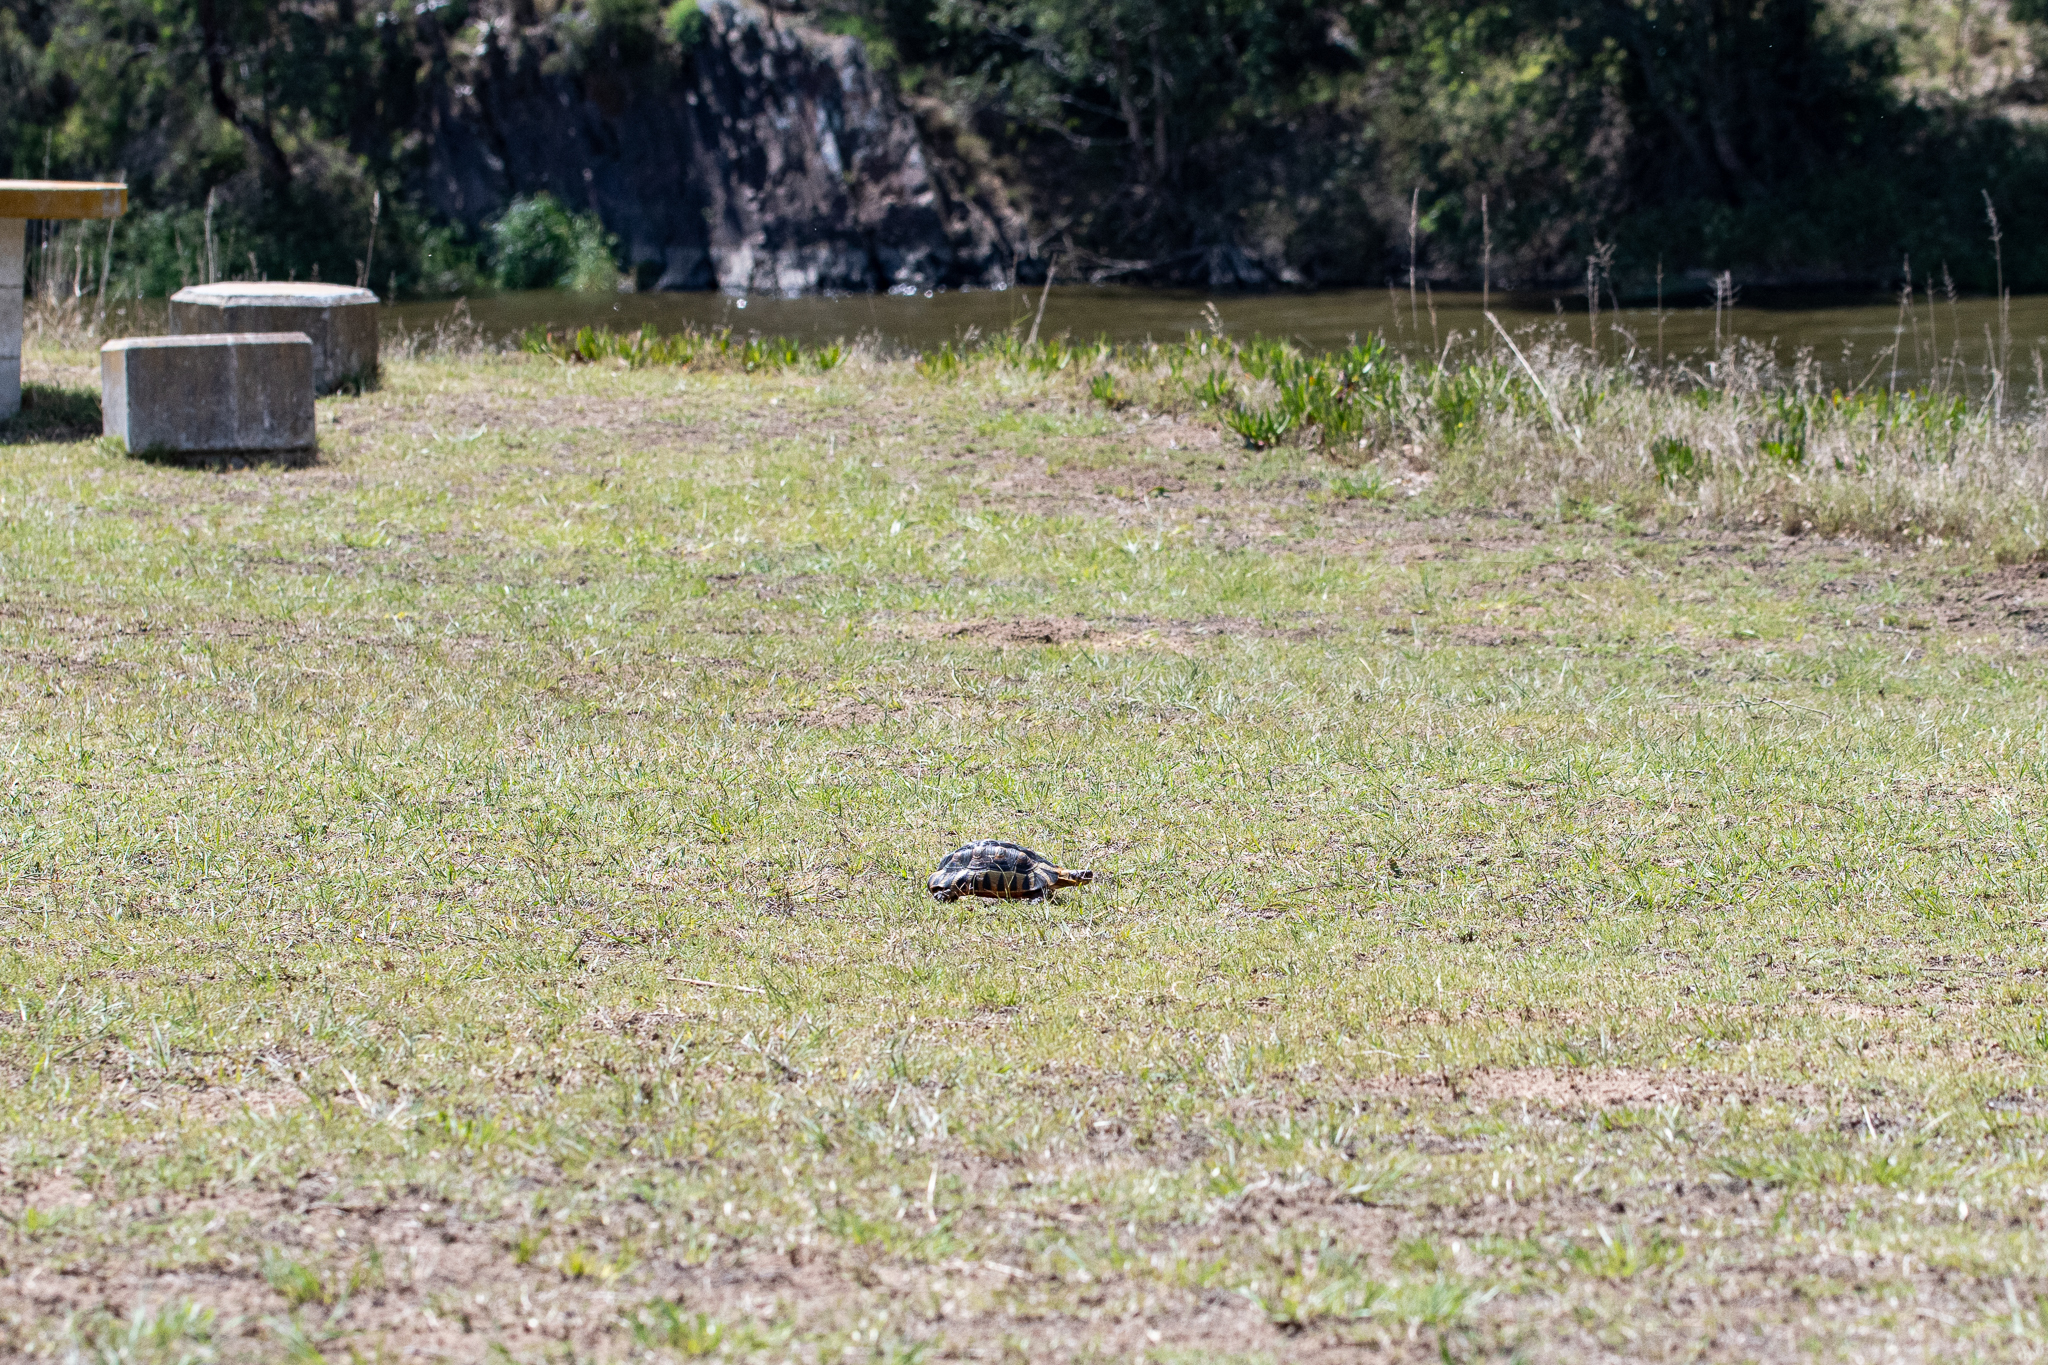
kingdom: Animalia
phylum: Chordata
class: Testudines
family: Testudinidae
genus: Chersina
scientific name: Chersina angulata
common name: South african bowsprit tortoise
